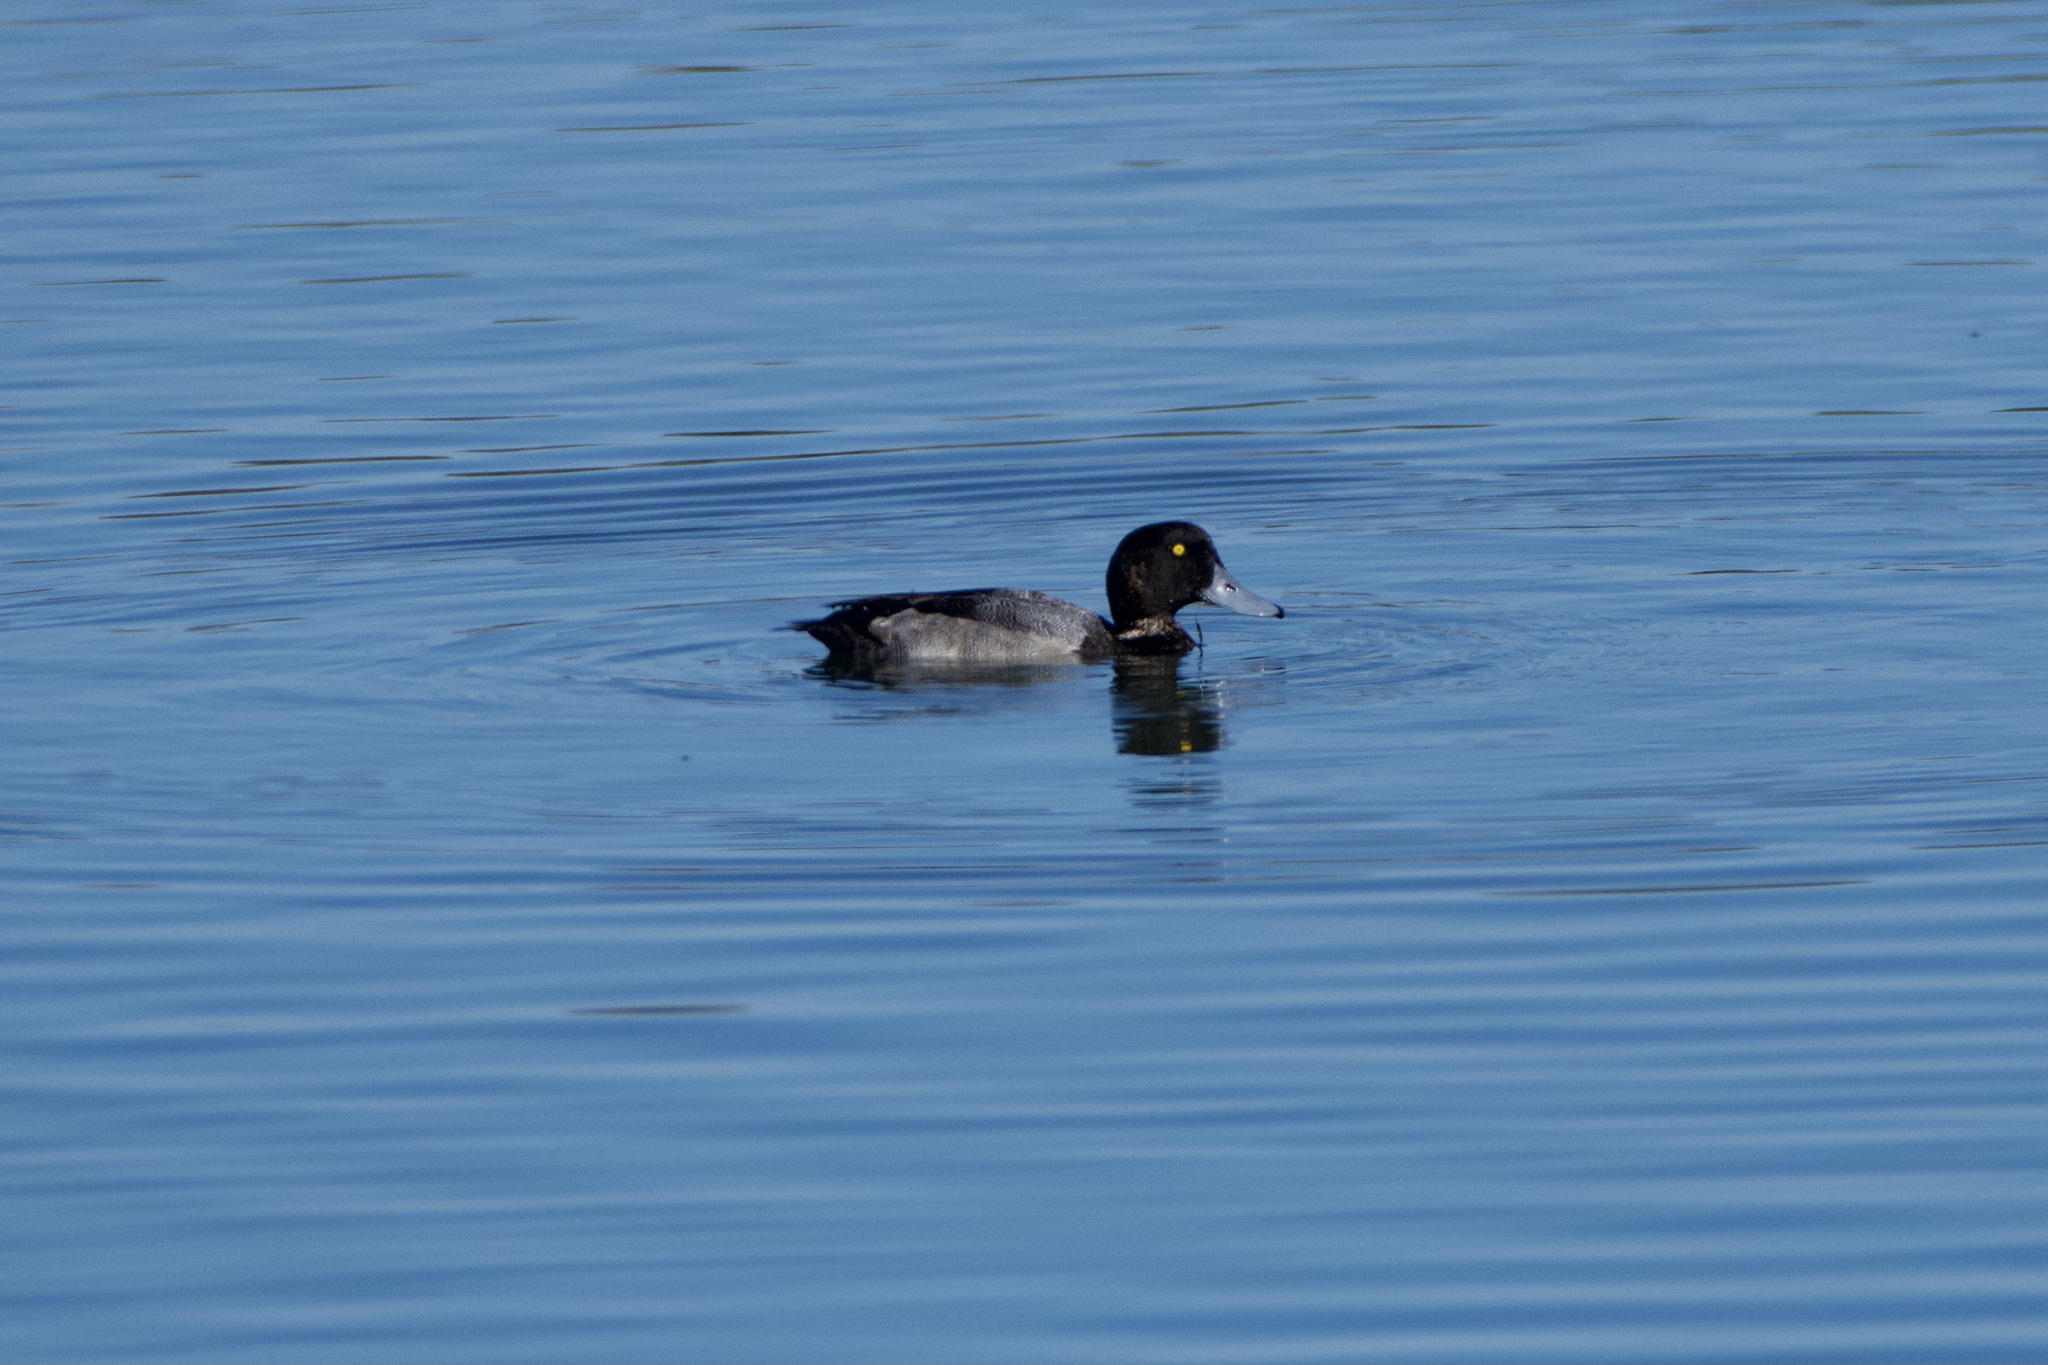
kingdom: Animalia
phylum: Chordata
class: Aves
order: Anseriformes
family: Anatidae
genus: Aythya
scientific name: Aythya marila
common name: Greater scaup
